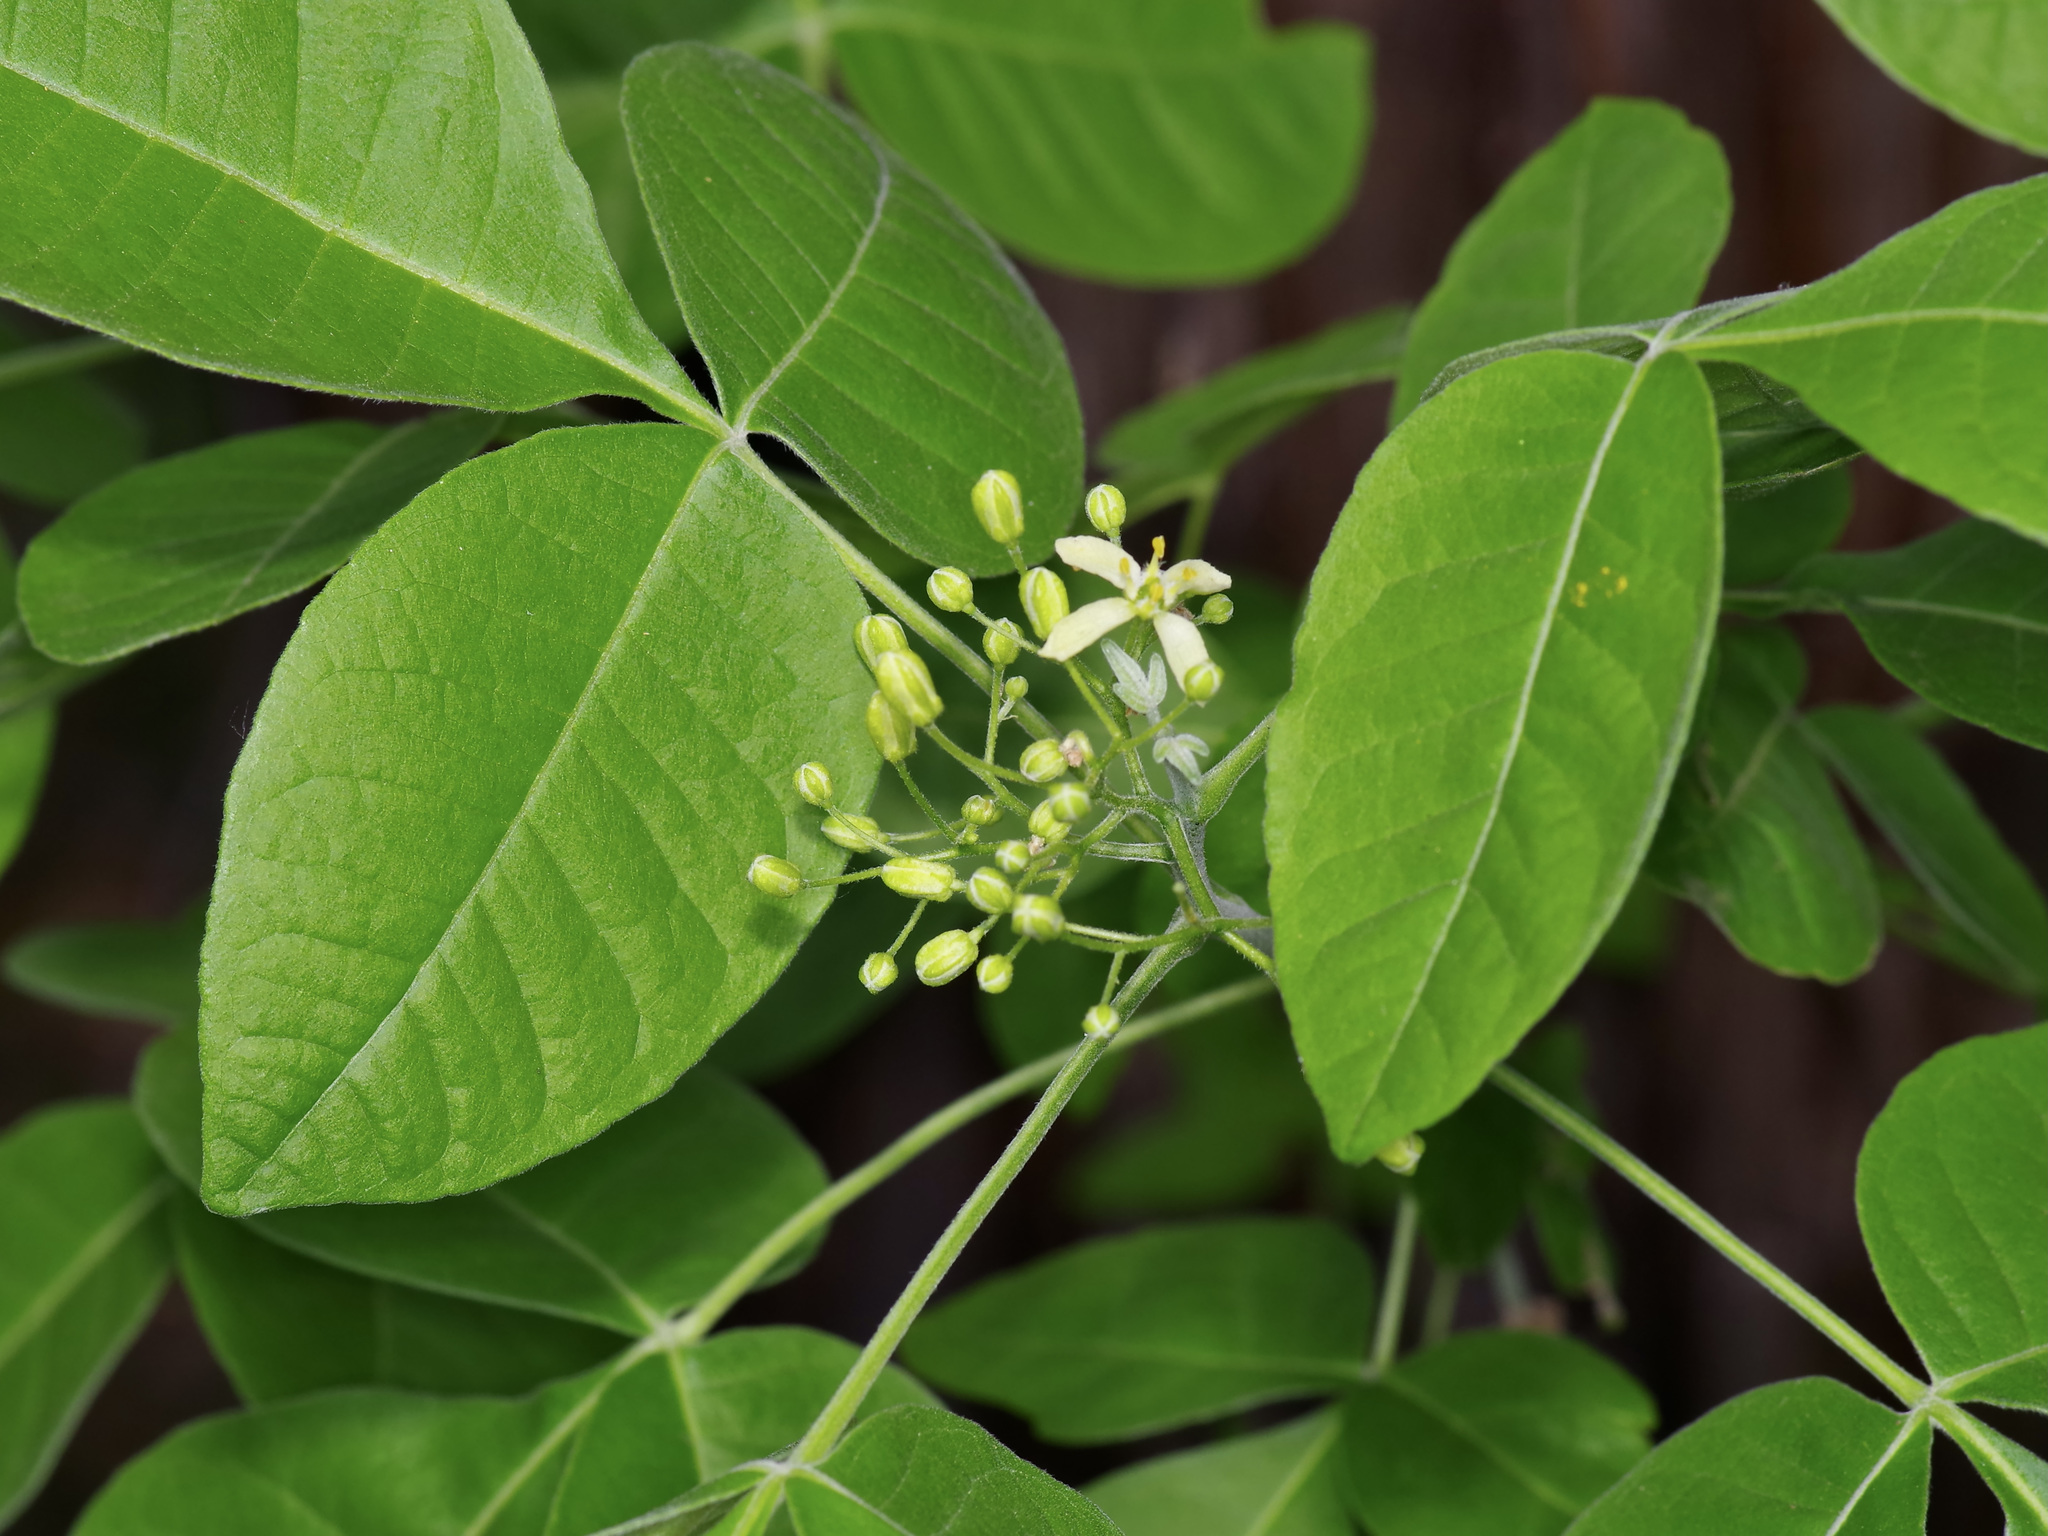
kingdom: Plantae
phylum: Tracheophyta
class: Magnoliopsida
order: Sapindales
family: Rutaceae
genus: Ptelea
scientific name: Ptelea trifoliata
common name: Common hop-tree
